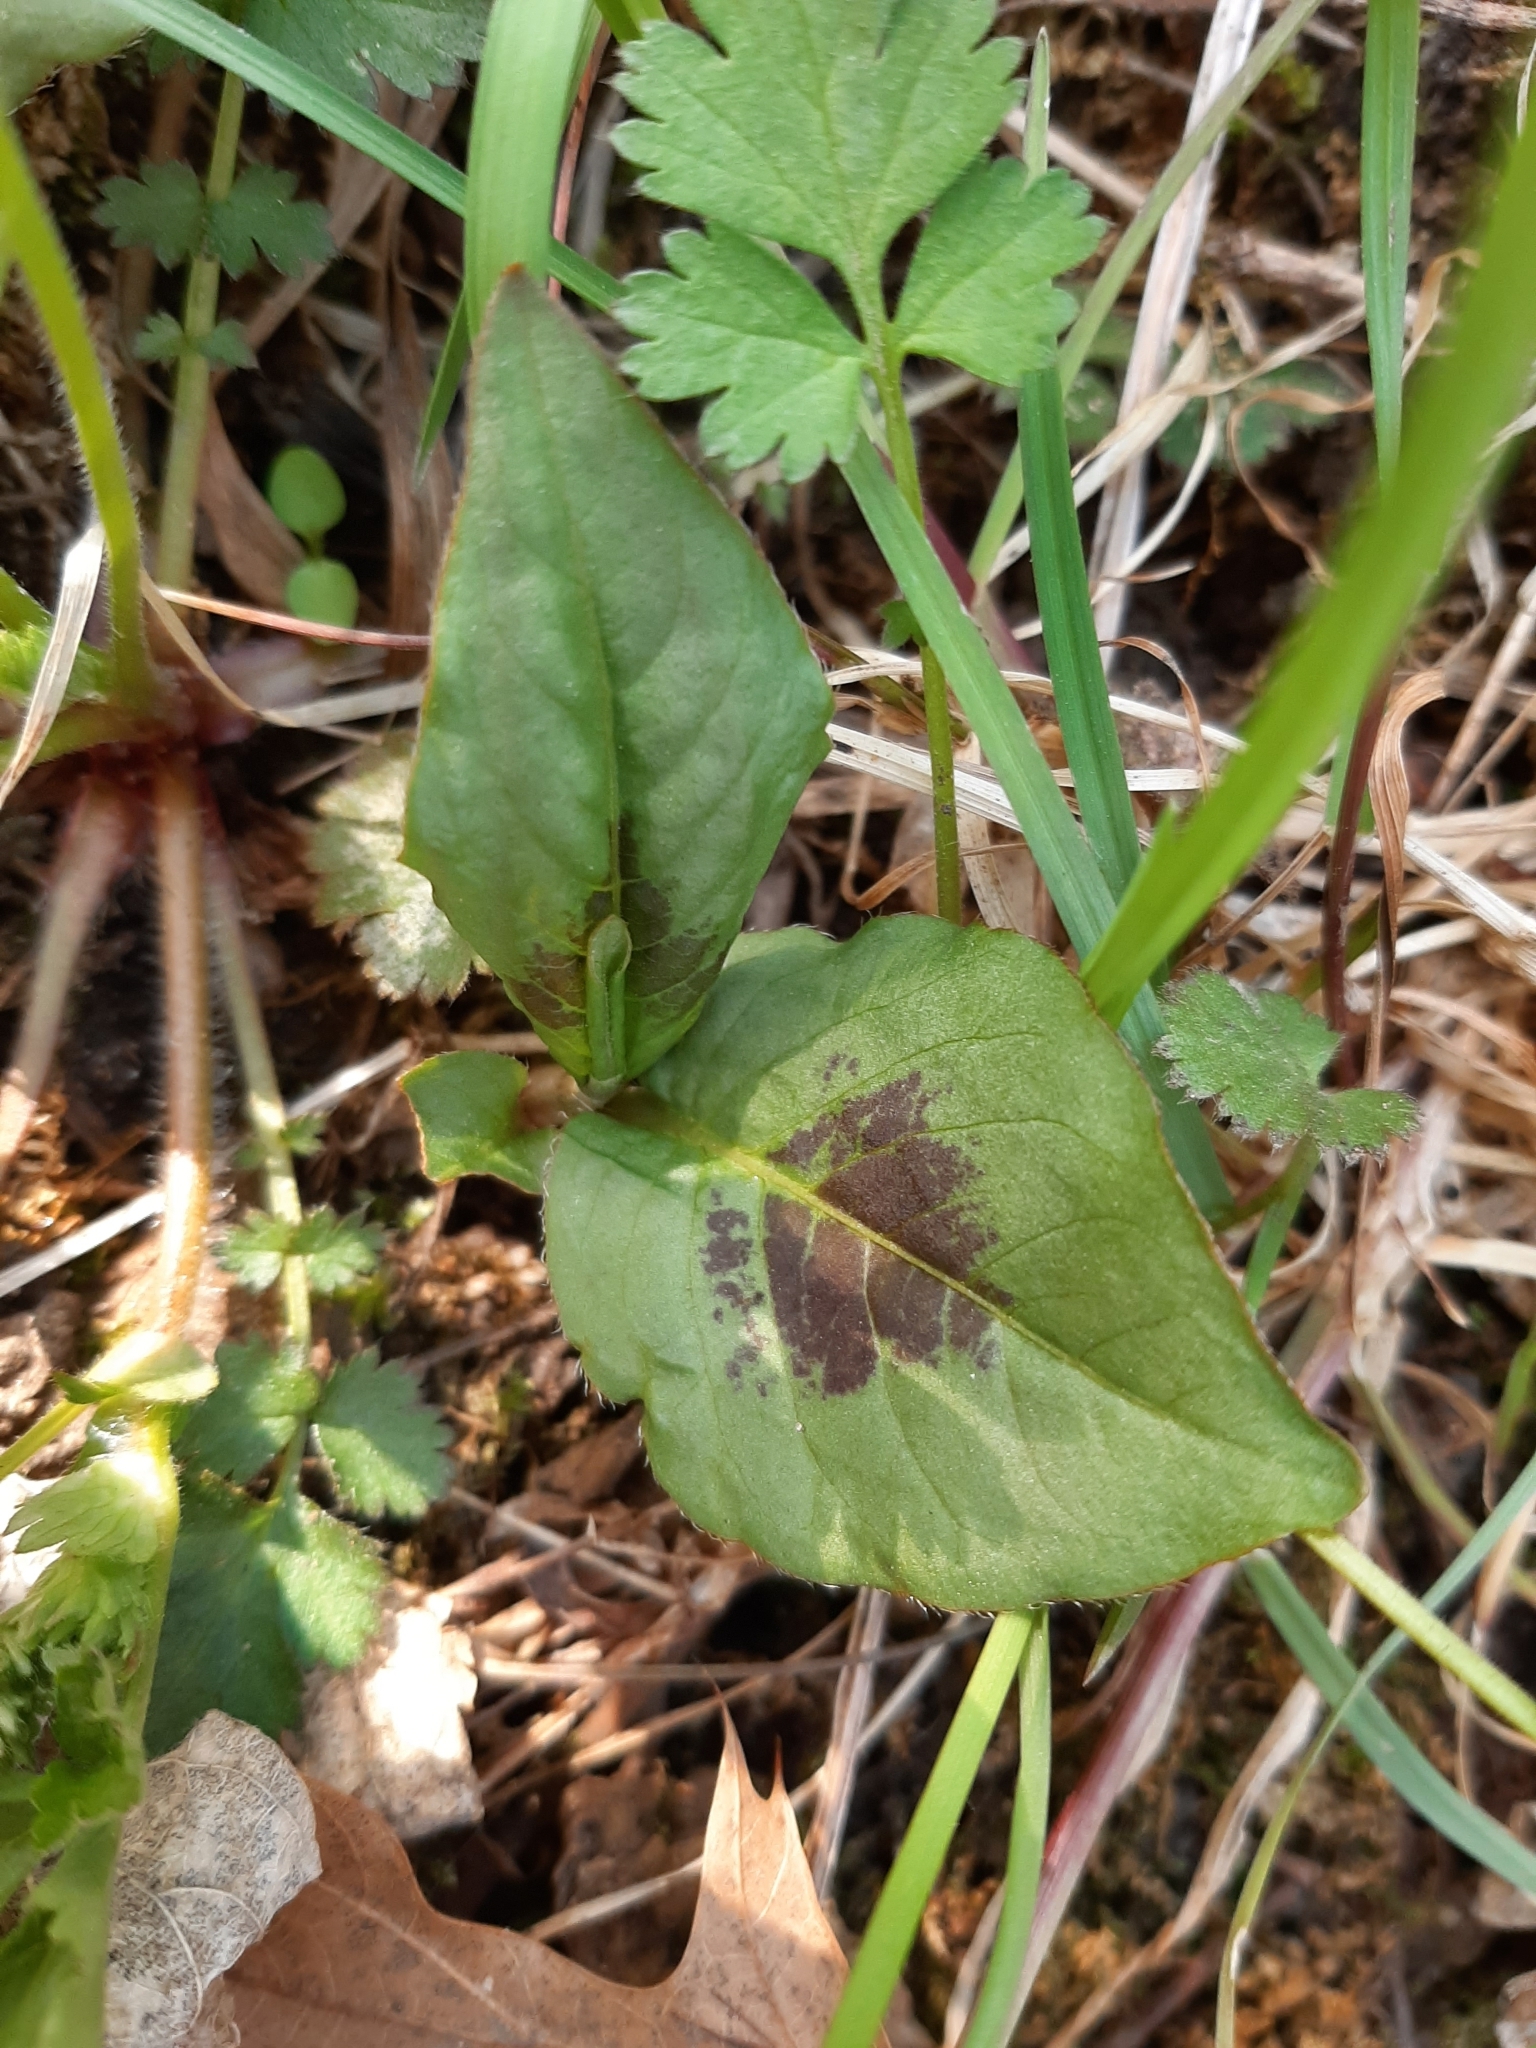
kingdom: Plantae
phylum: Tracheophyta
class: Magnoliopsida
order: Caryophyllales
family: Polygonaceae
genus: Persicaria
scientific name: Persicaria virginiana
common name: Jumpseed
